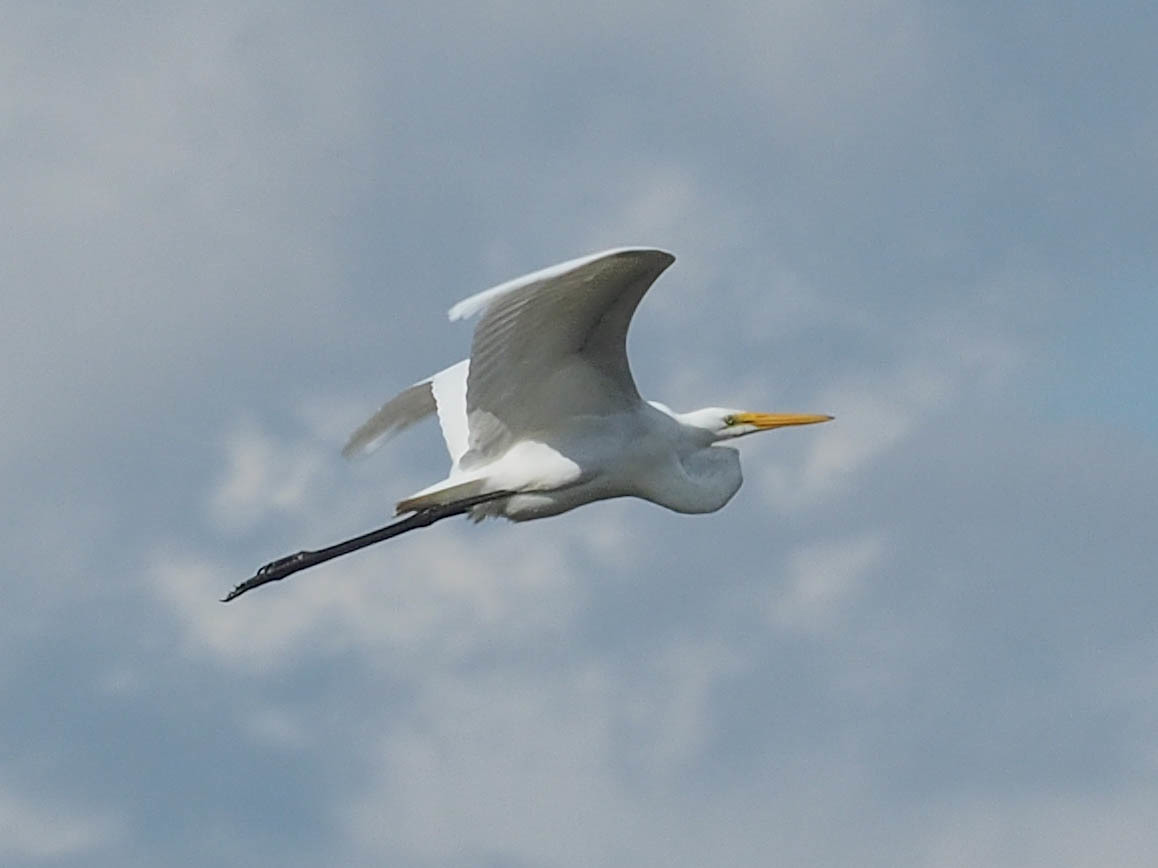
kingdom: Animalia
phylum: Chordata
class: Aves
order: Pelecaniformes
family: Ardeidae
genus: Ardea
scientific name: Ardea alba
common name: Great egret
